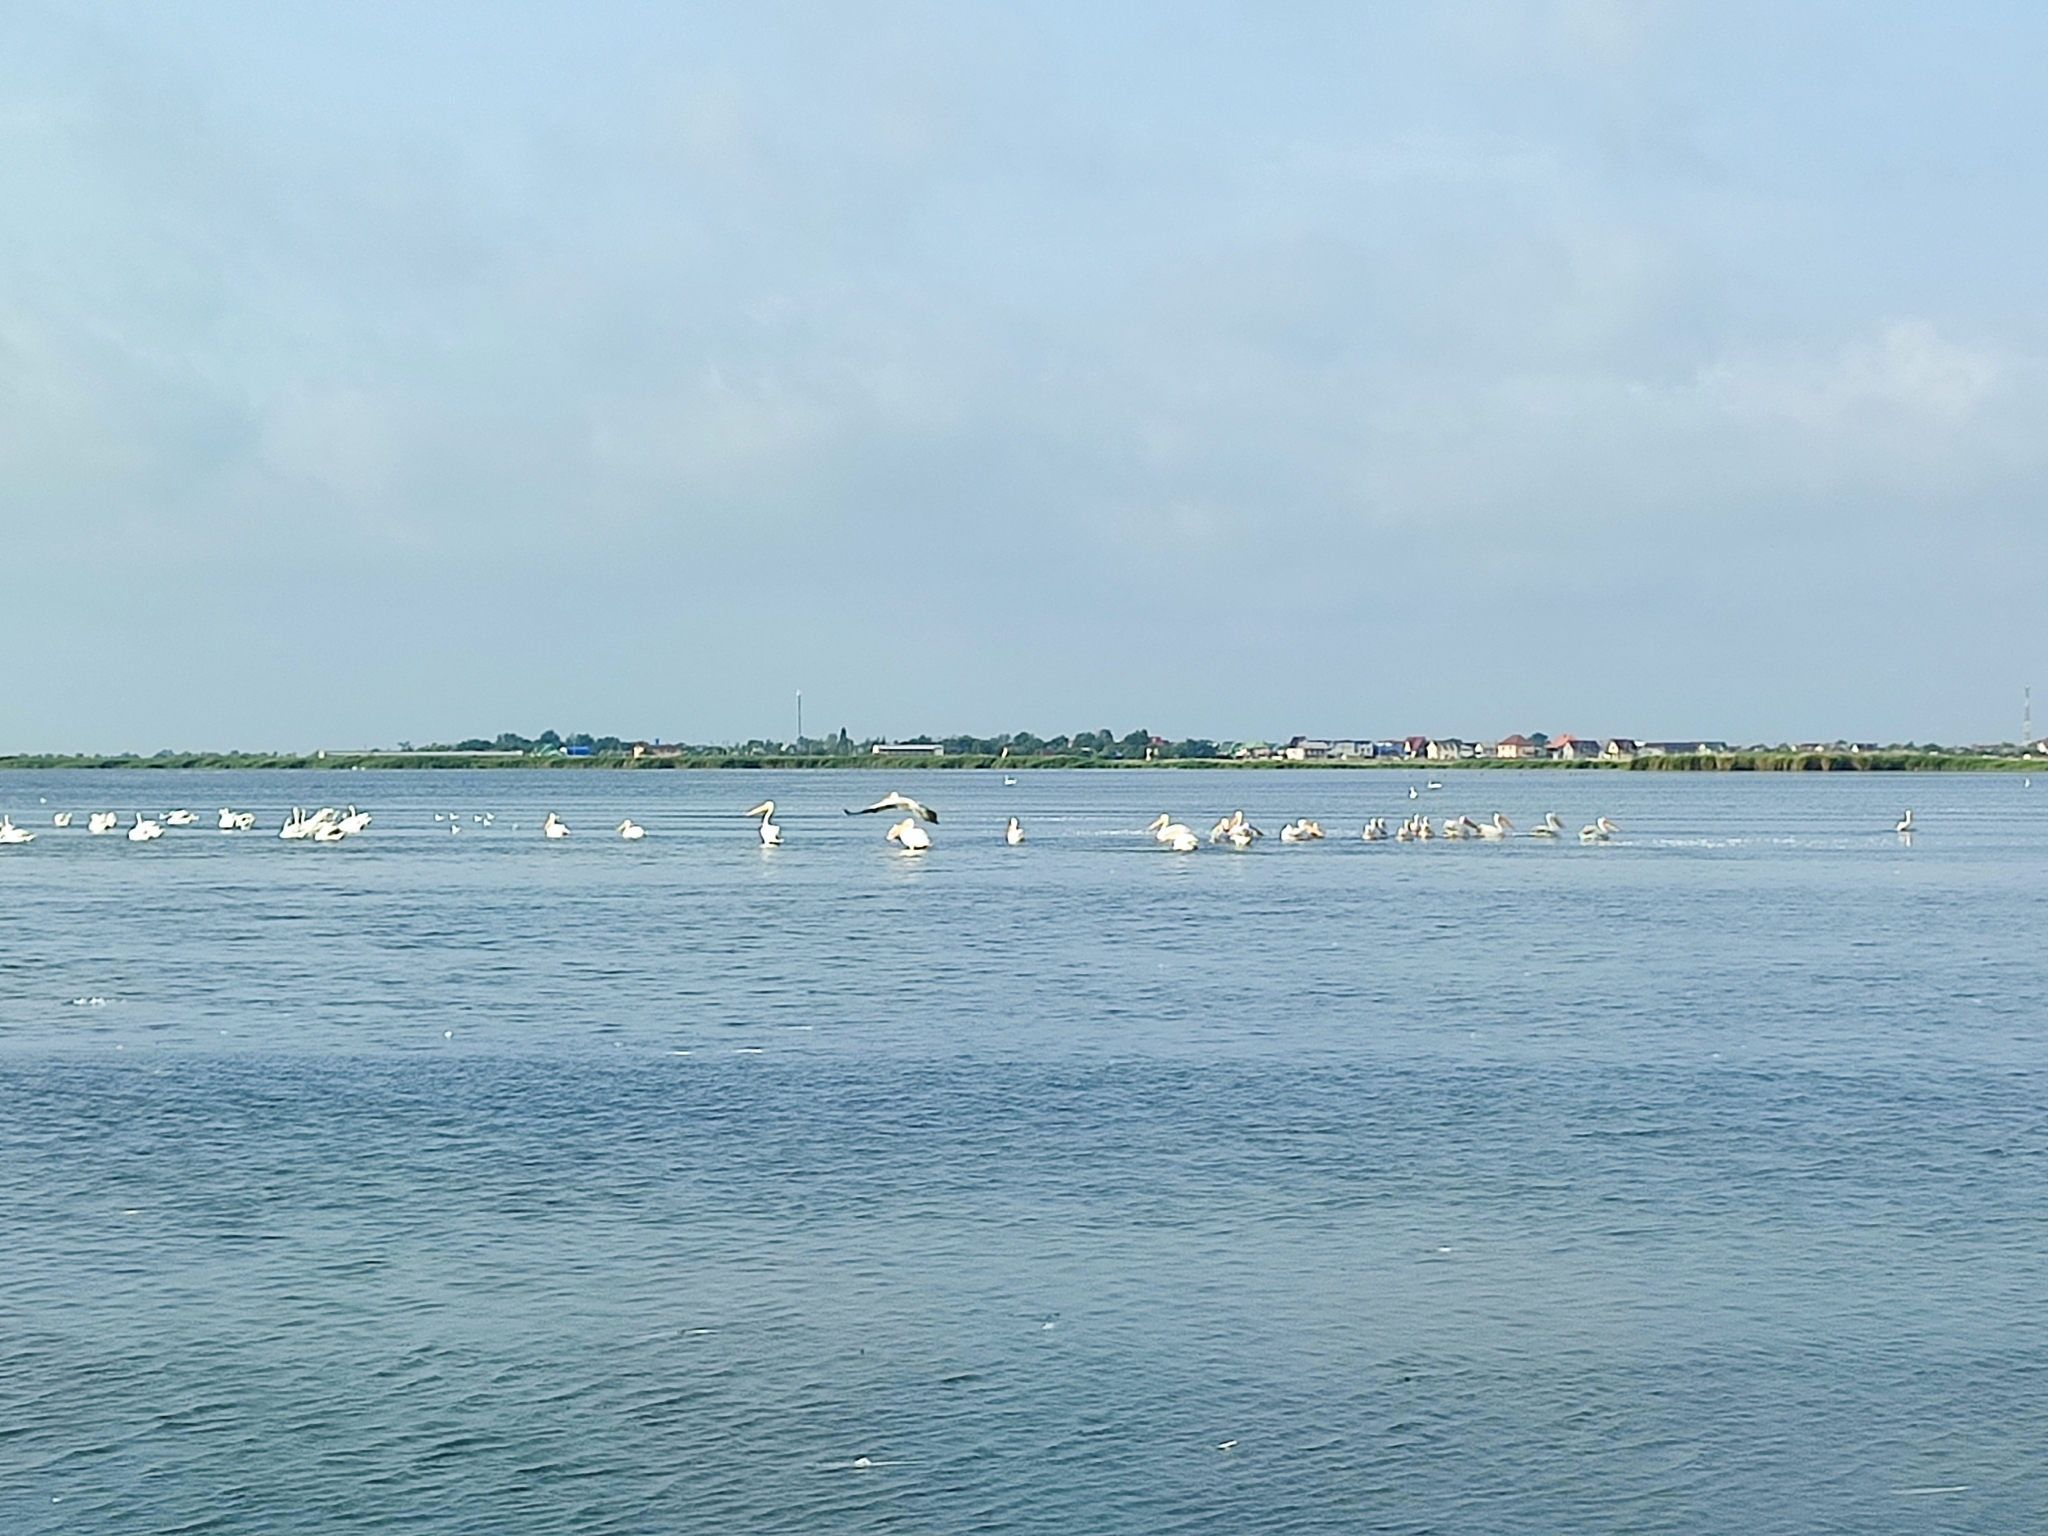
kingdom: Animalia
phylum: Chordata
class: Aves
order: Pelecaniformes
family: Pelecanidae
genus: Pelecanus
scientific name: Pelecanus onocrotalus
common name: Great white pelican
